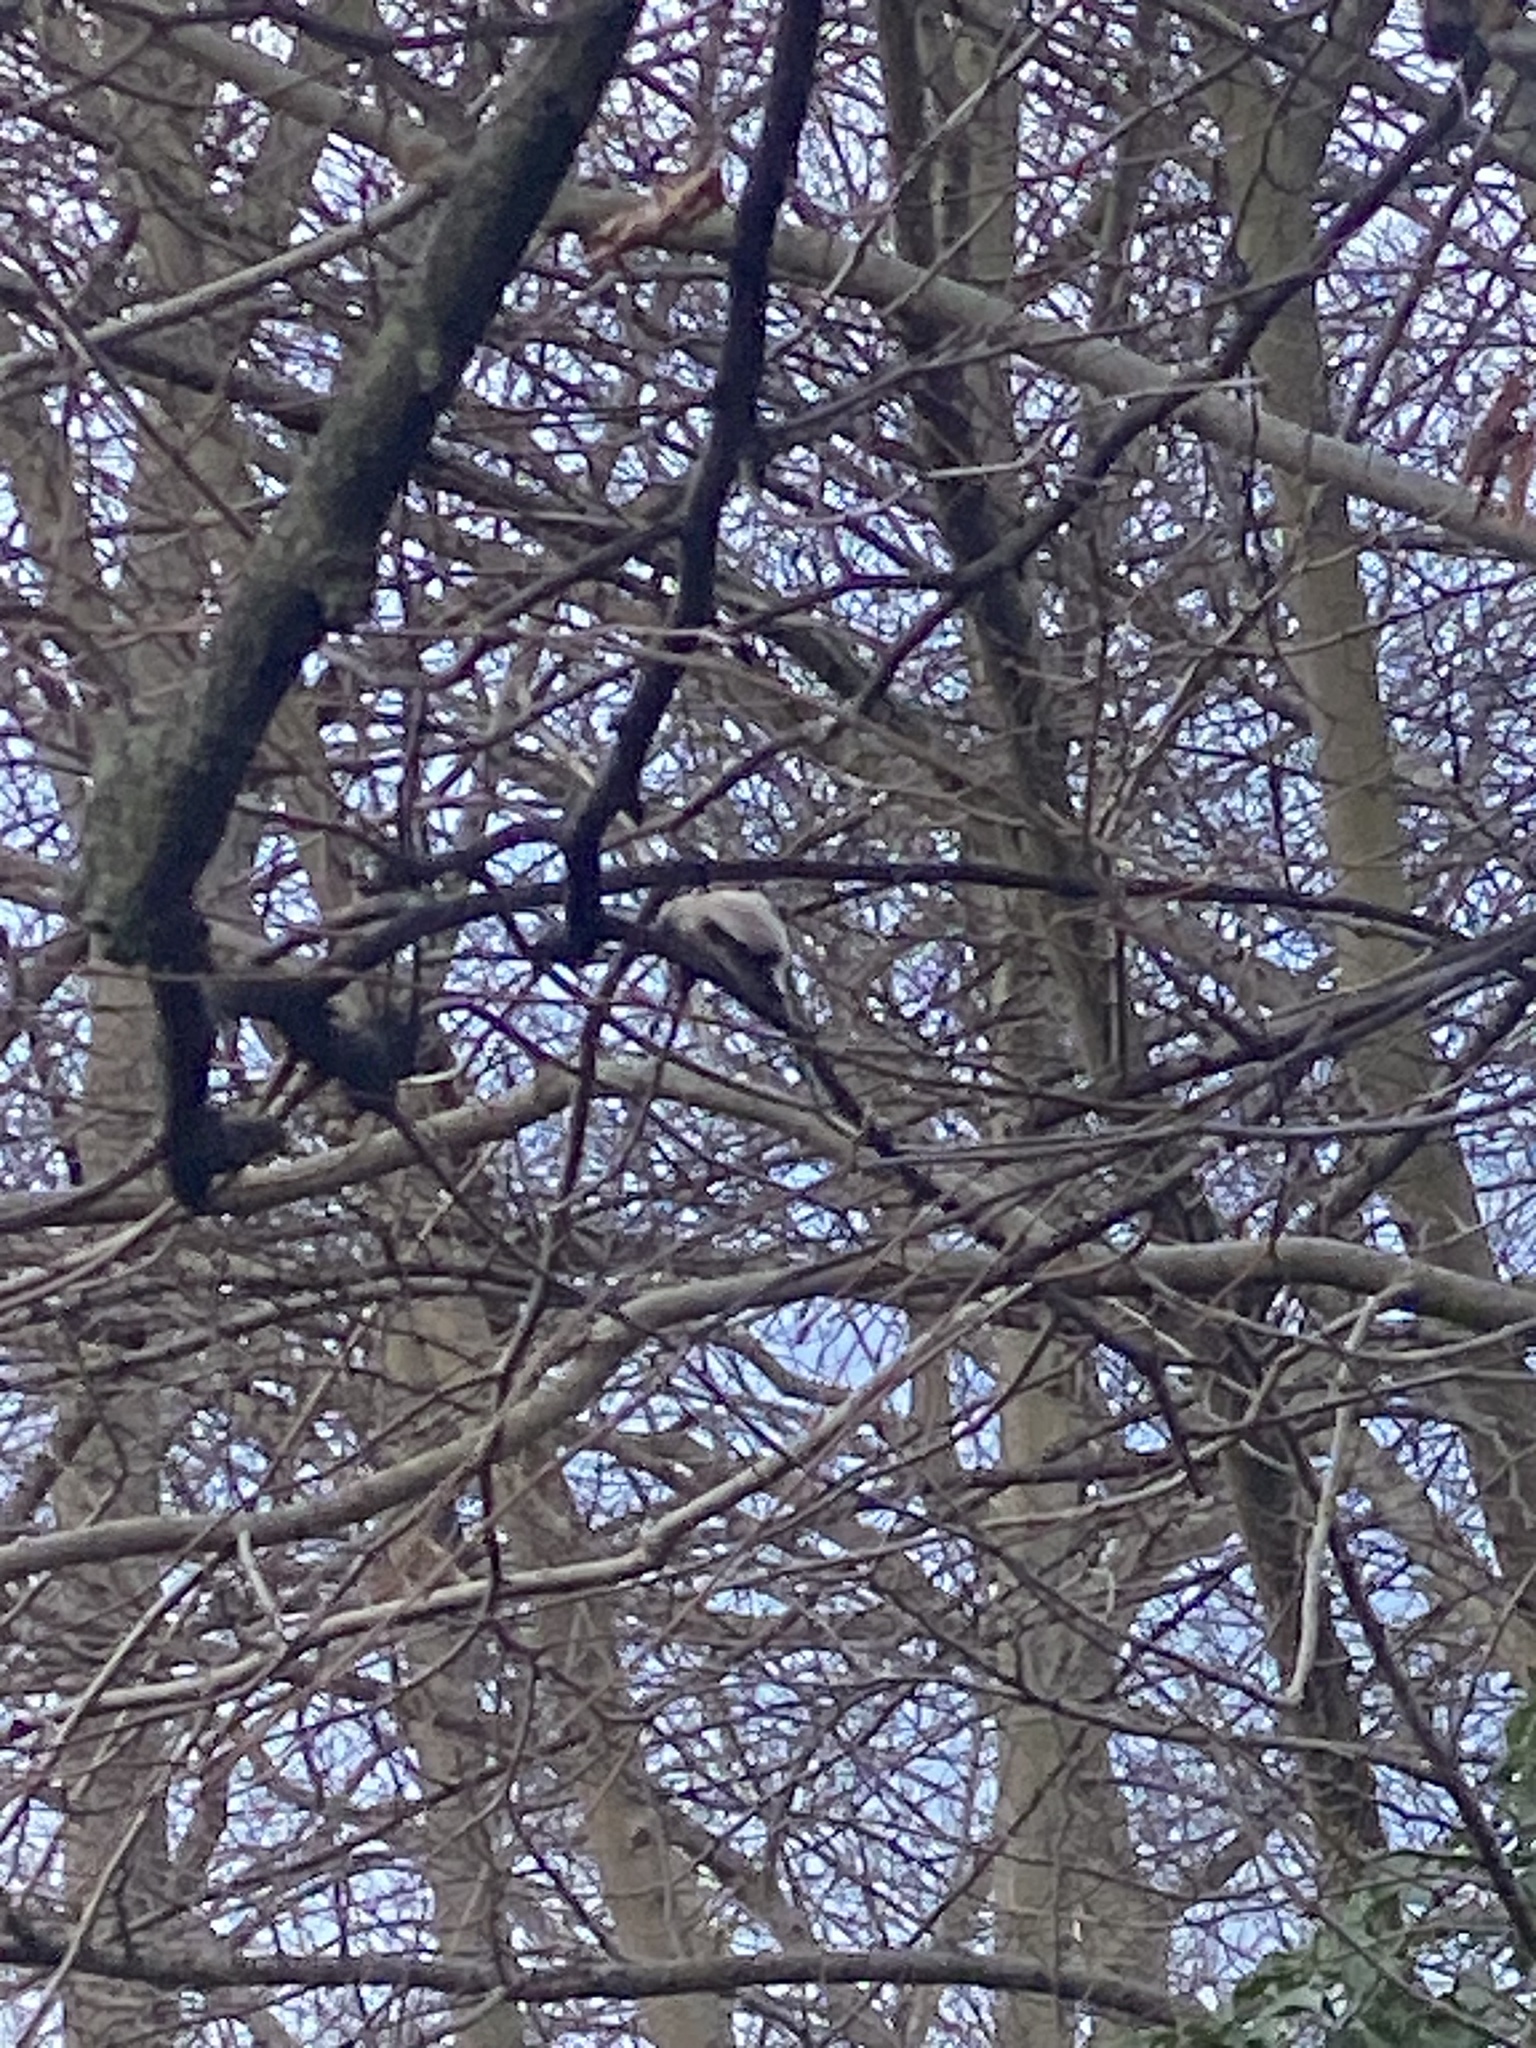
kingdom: Animalia
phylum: Chordata
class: Aves
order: Passeriformes
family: Aegithalidae
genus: Aegithalos
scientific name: Aegithalos caudatus
